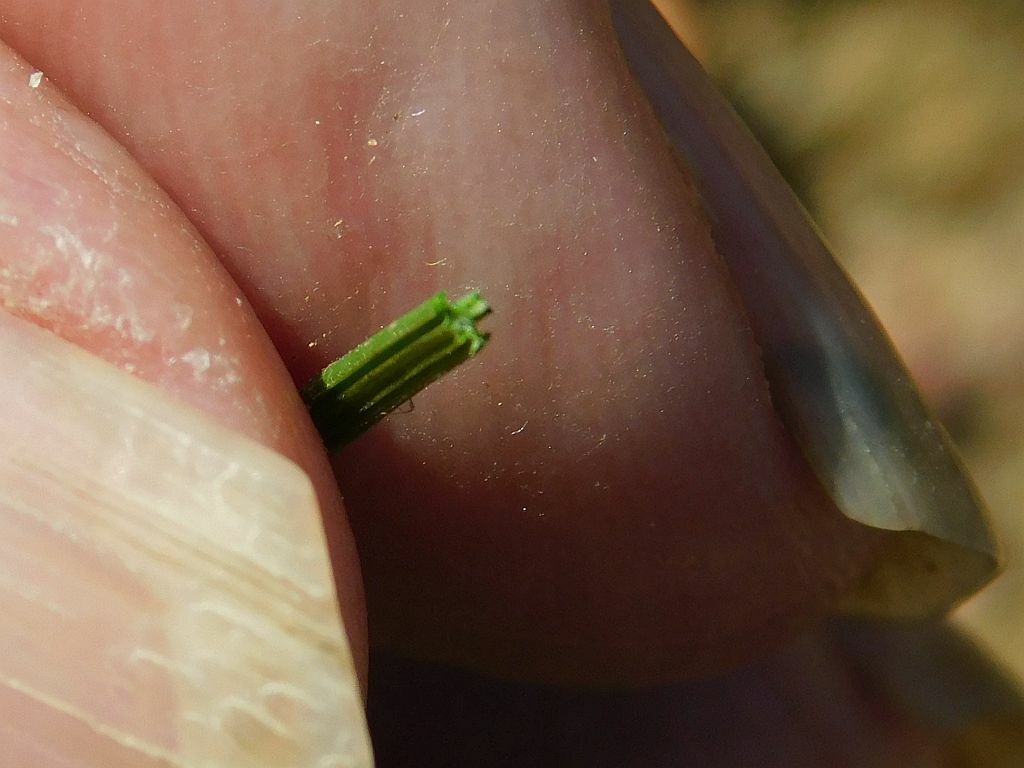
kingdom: Plantae
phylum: Tracheophyta
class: Liliopsida
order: Asparagales
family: Iridaceae
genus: Romulea
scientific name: Romulea setifolia
